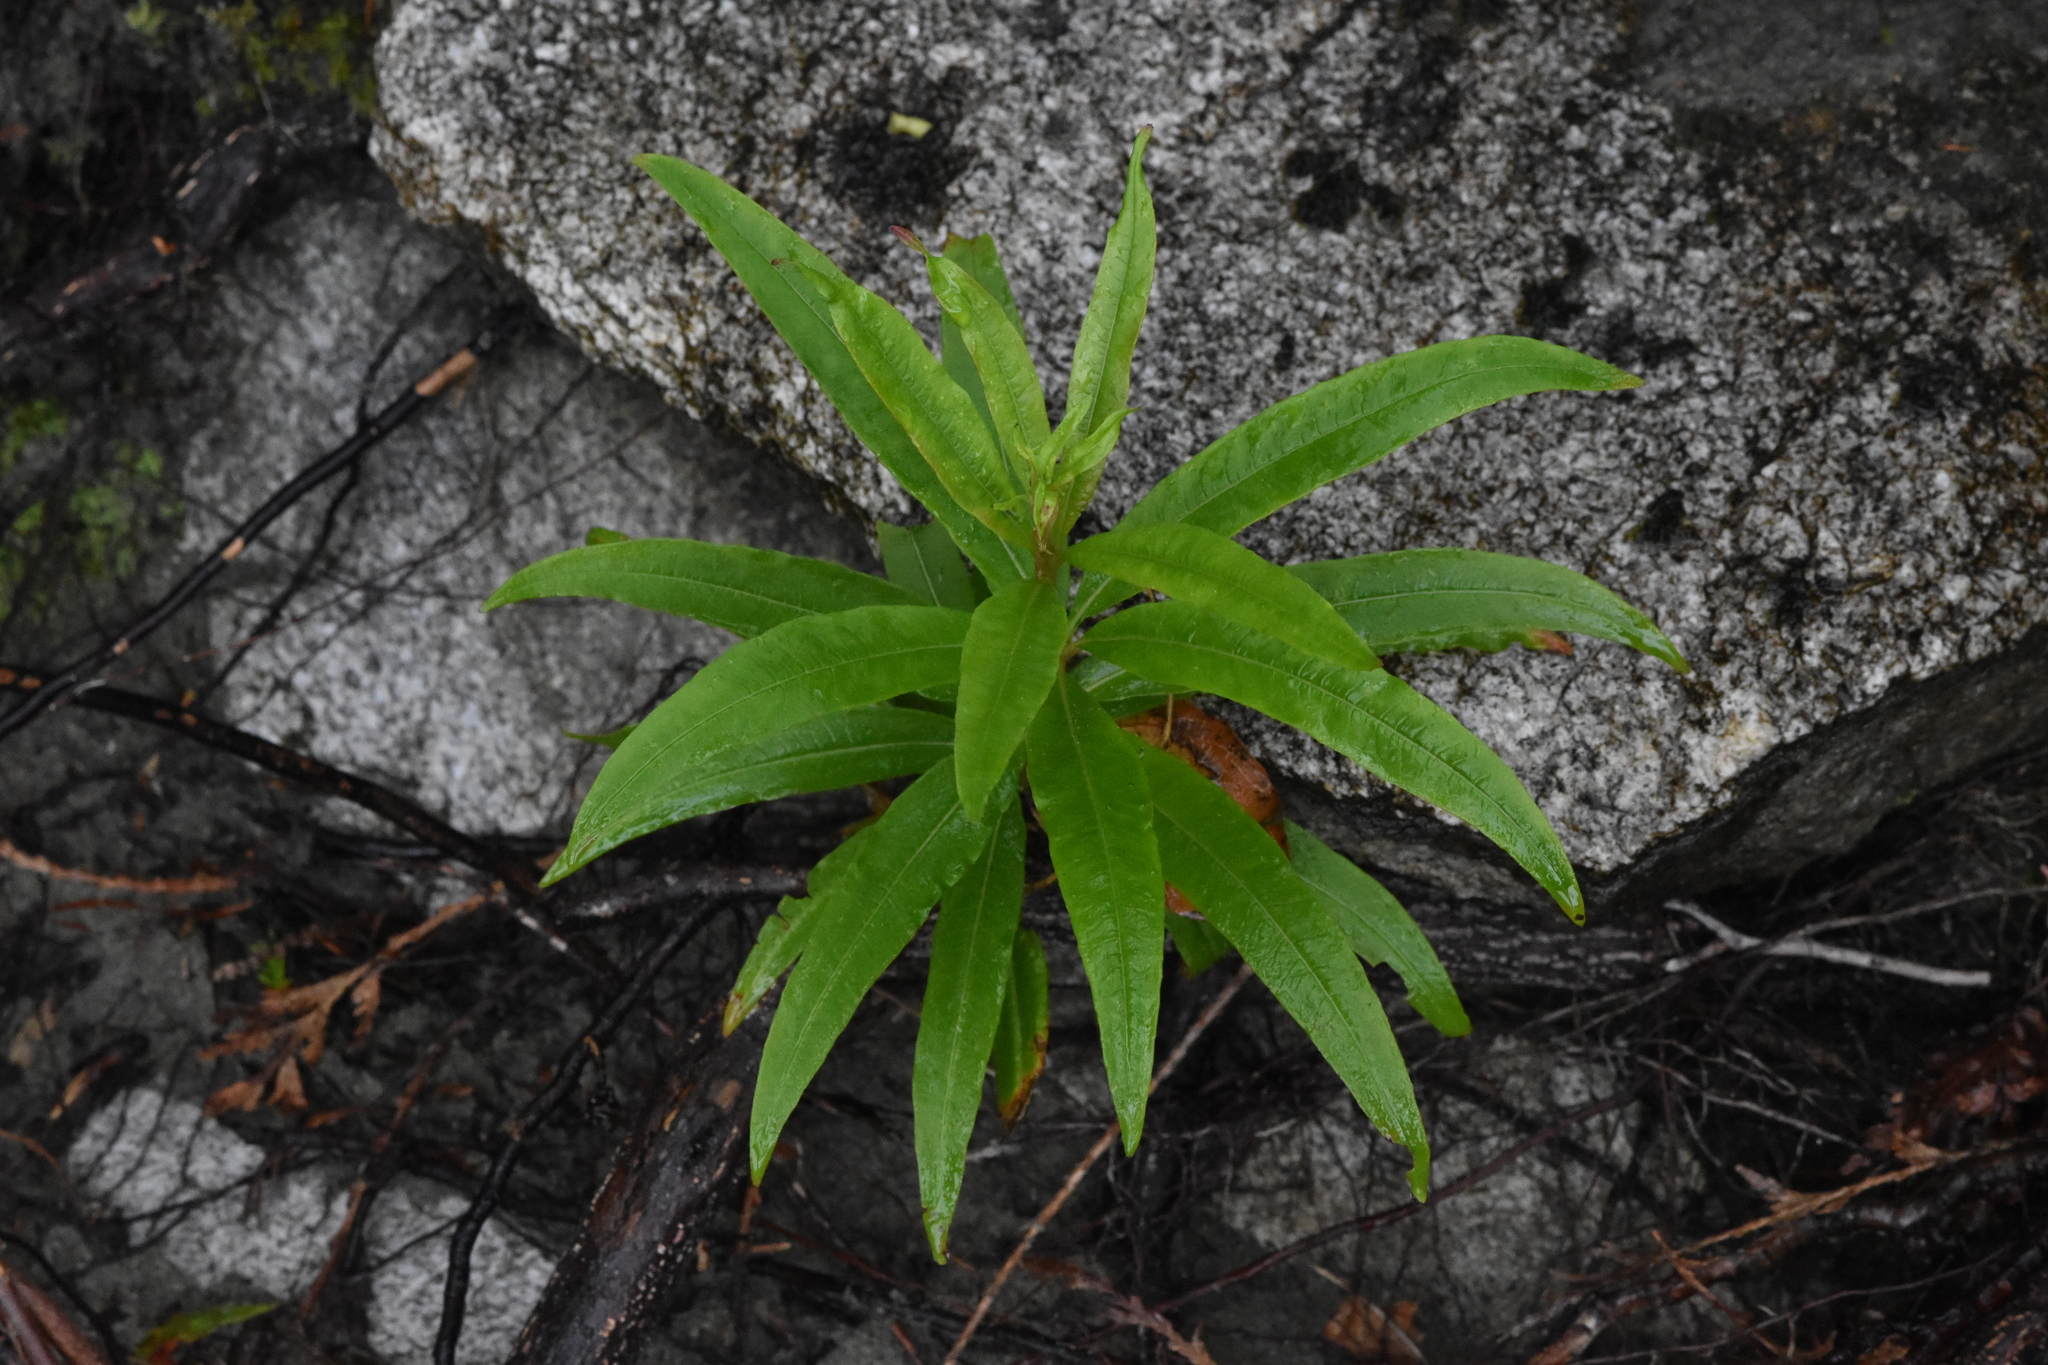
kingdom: Plantae
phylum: Tracheophyta
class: Magnoliopsida
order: Myrtales
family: Onagraceae
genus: Chamaenerion
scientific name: Chamaenerion angustifolium
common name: Fireweed
